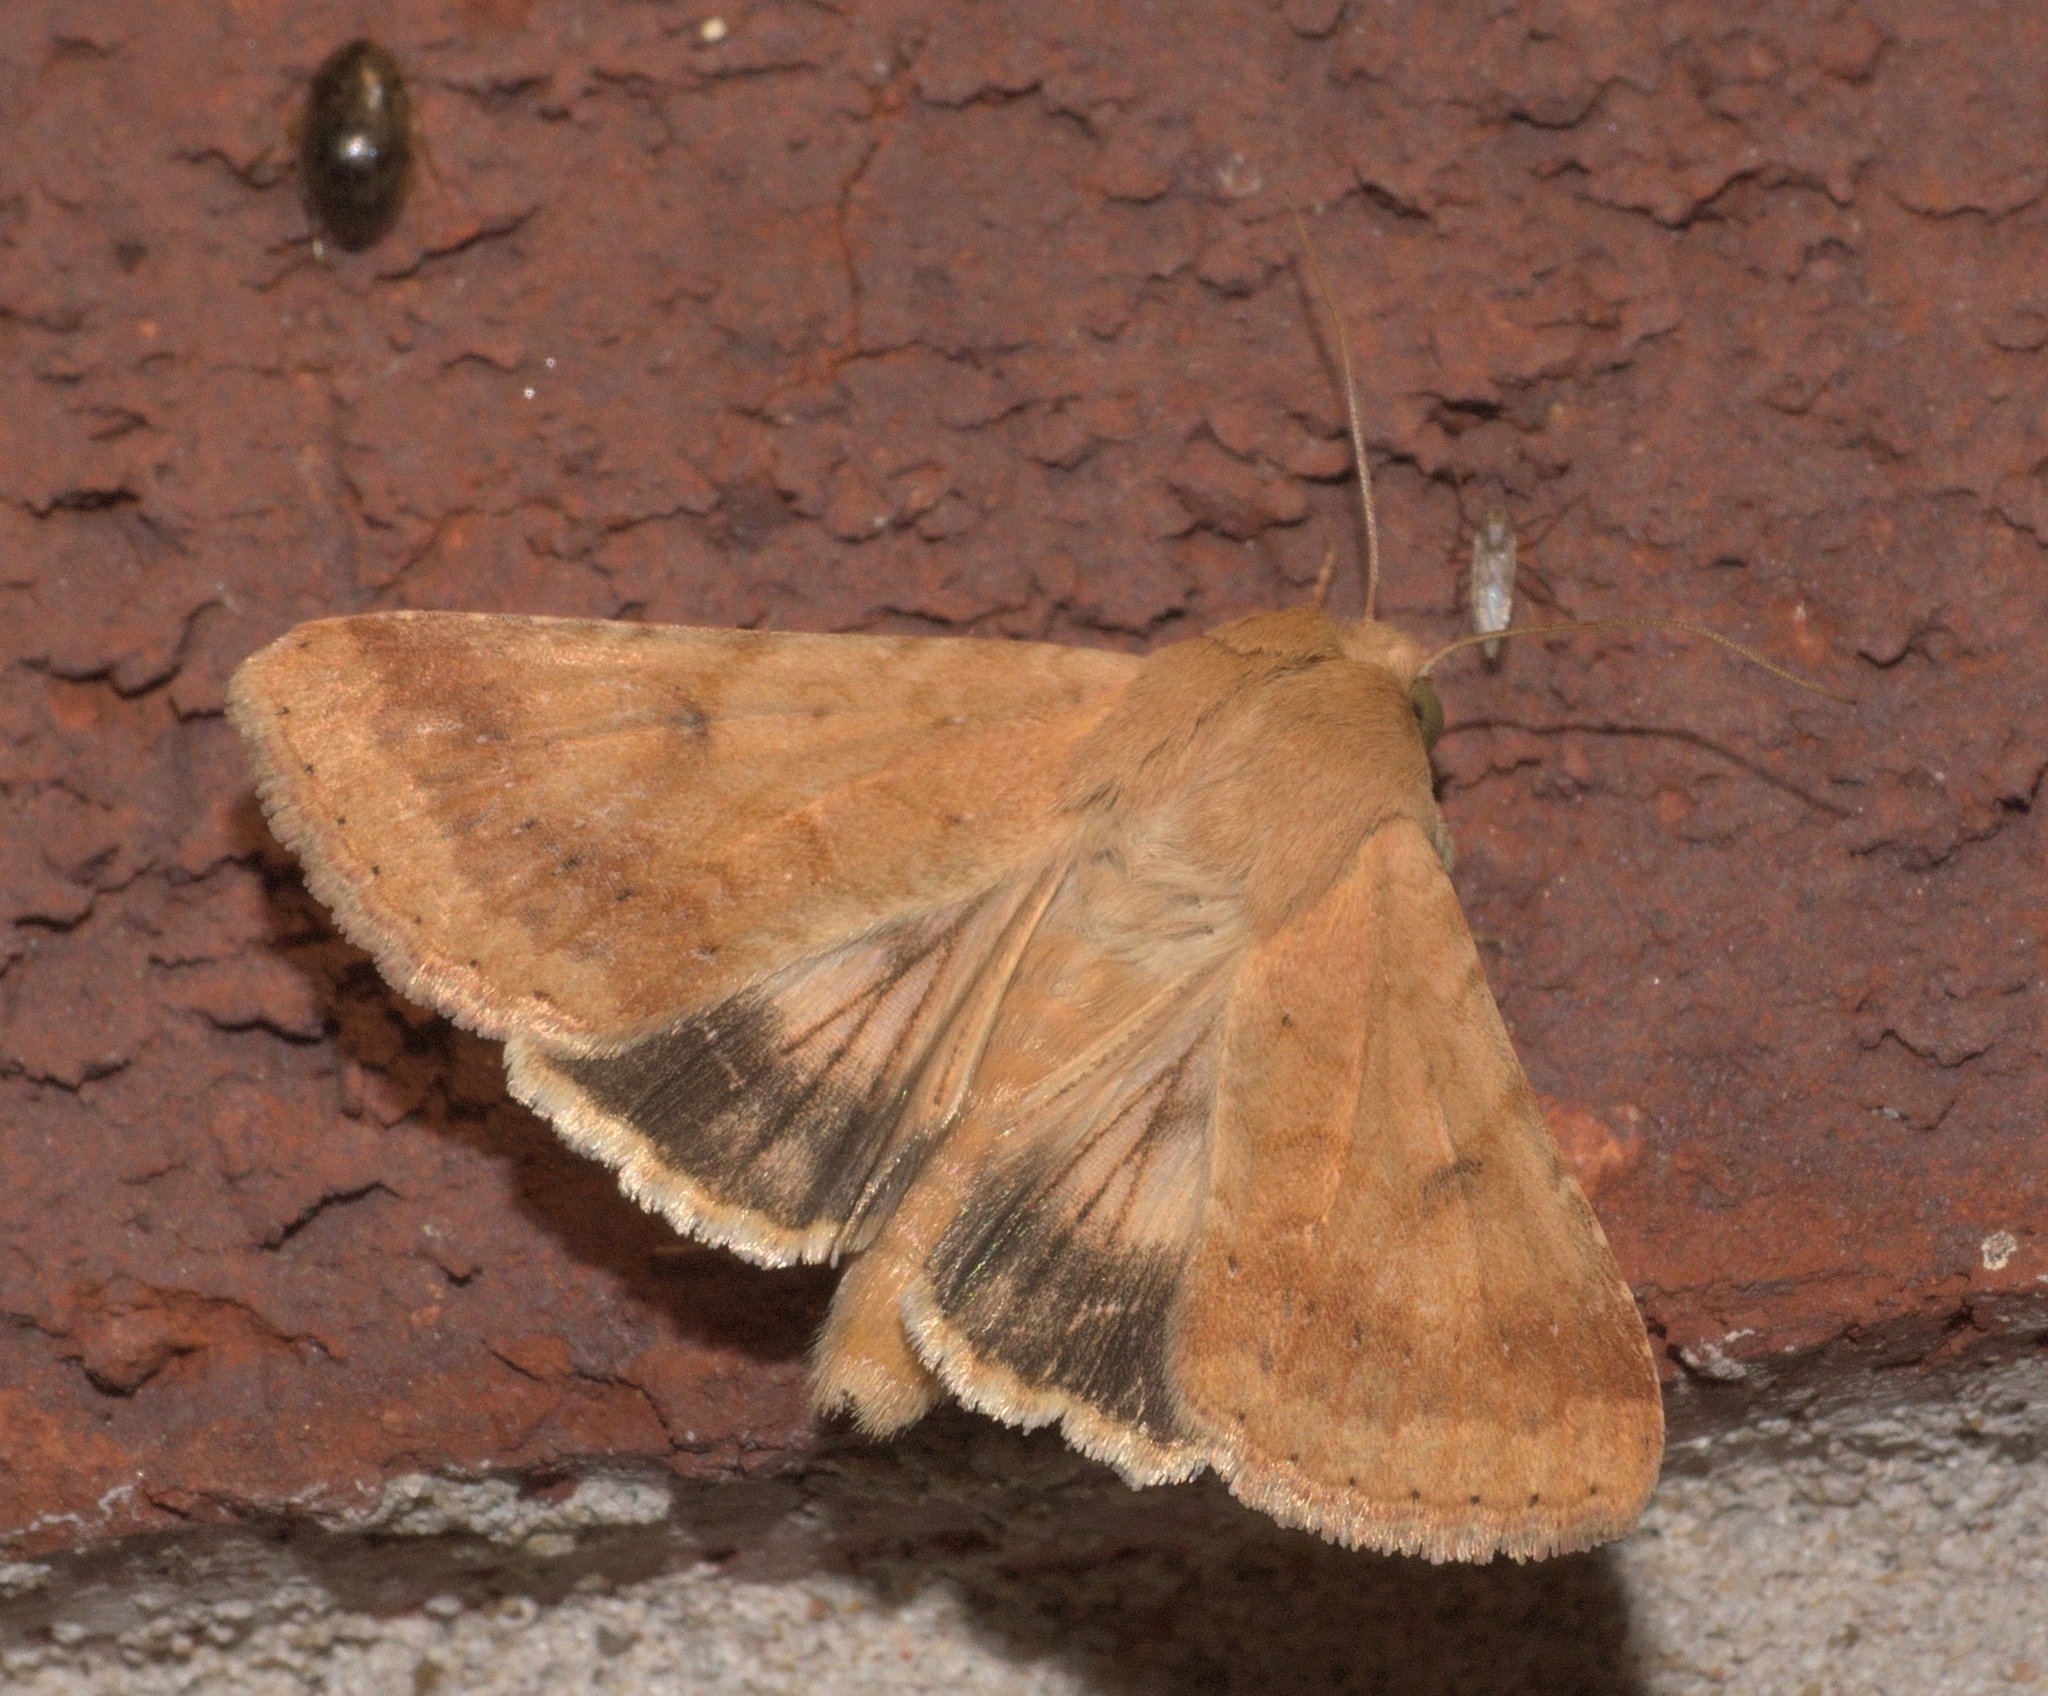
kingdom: Animalia
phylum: Arthropoda
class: Insecta
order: Lepidoptera
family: Noctuidae
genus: Helicoverpa
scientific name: Helicoverpa zea
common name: Bollworm
